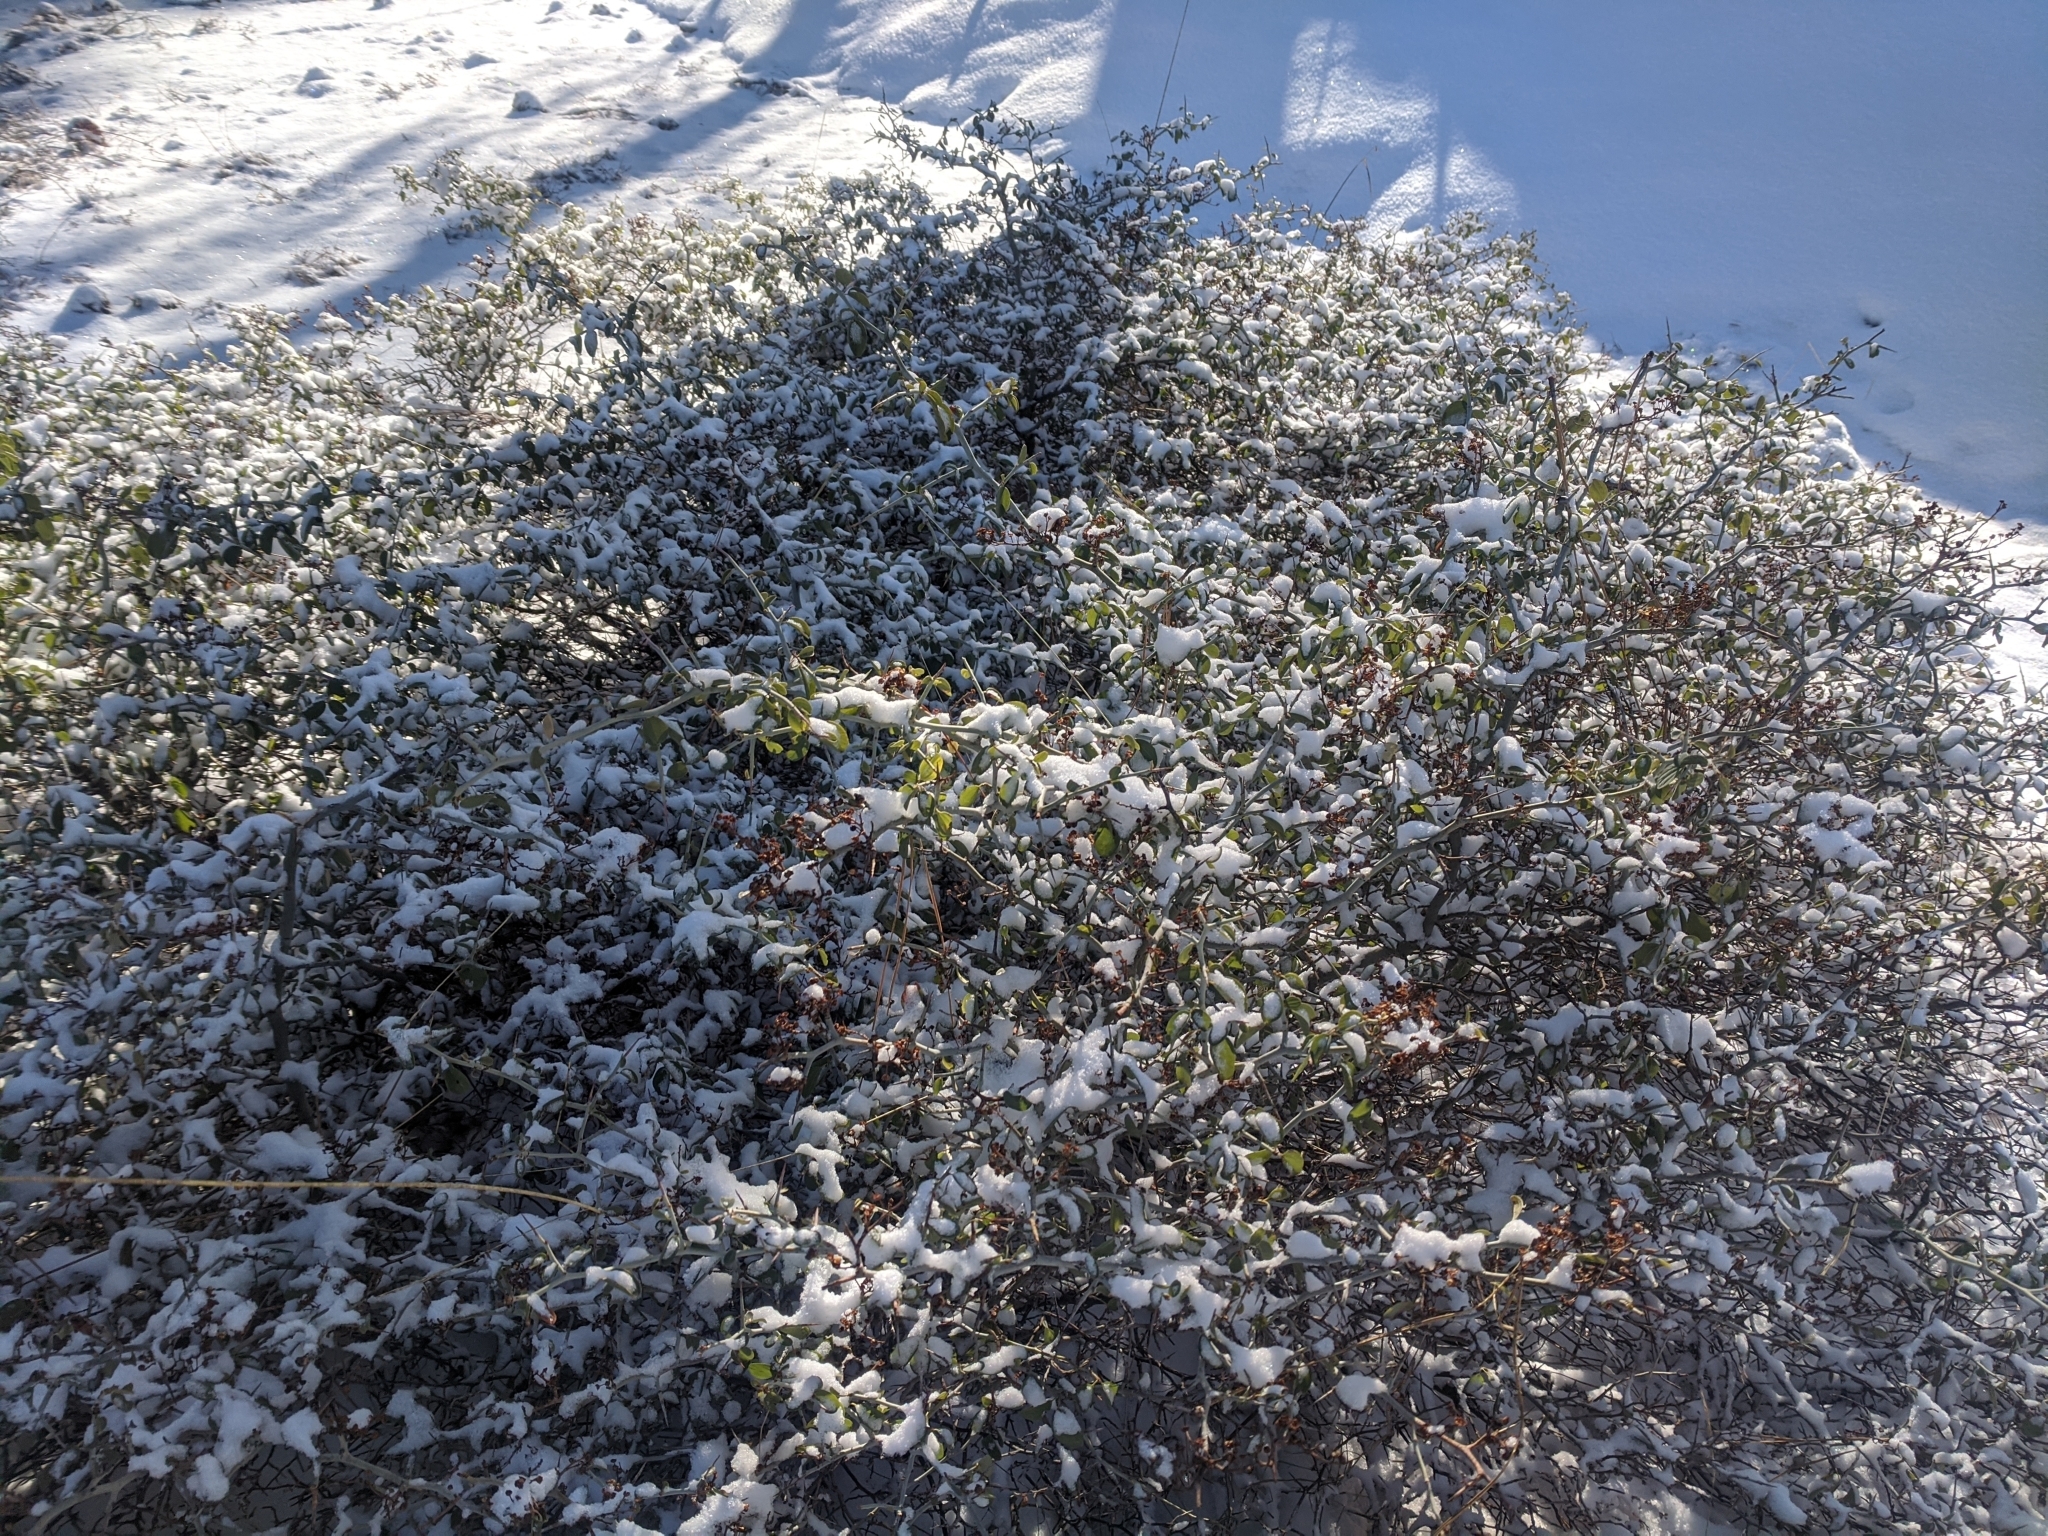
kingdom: Plantae
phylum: Tracheophyta
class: Magnoliopsida
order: Rosales
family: Rhamnaceae
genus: Ceanothus
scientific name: Ceanothus cordulatus
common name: Mountain whitethorn
